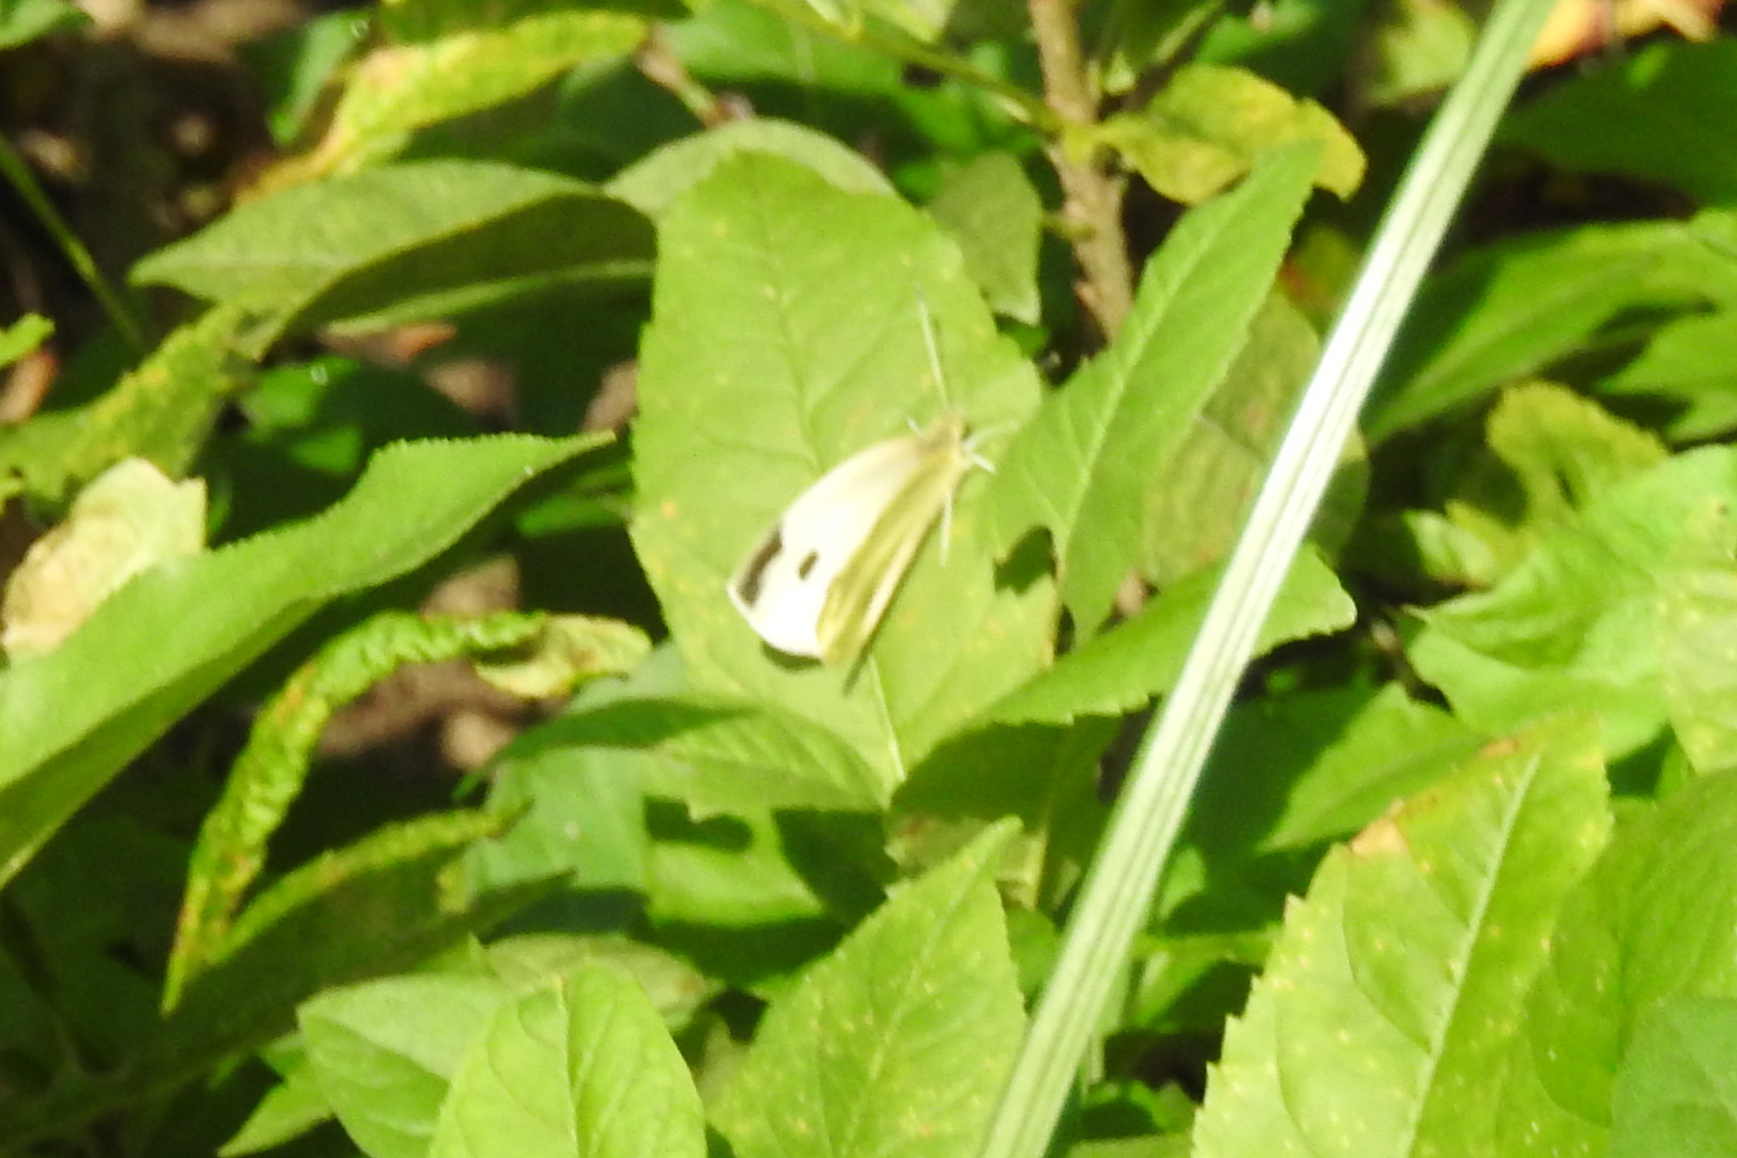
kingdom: Animalia
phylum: Arthropoda
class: Insecta
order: Lepidoptera
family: Pieridae
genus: Pieris
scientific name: Pieris rapae
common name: Small white
